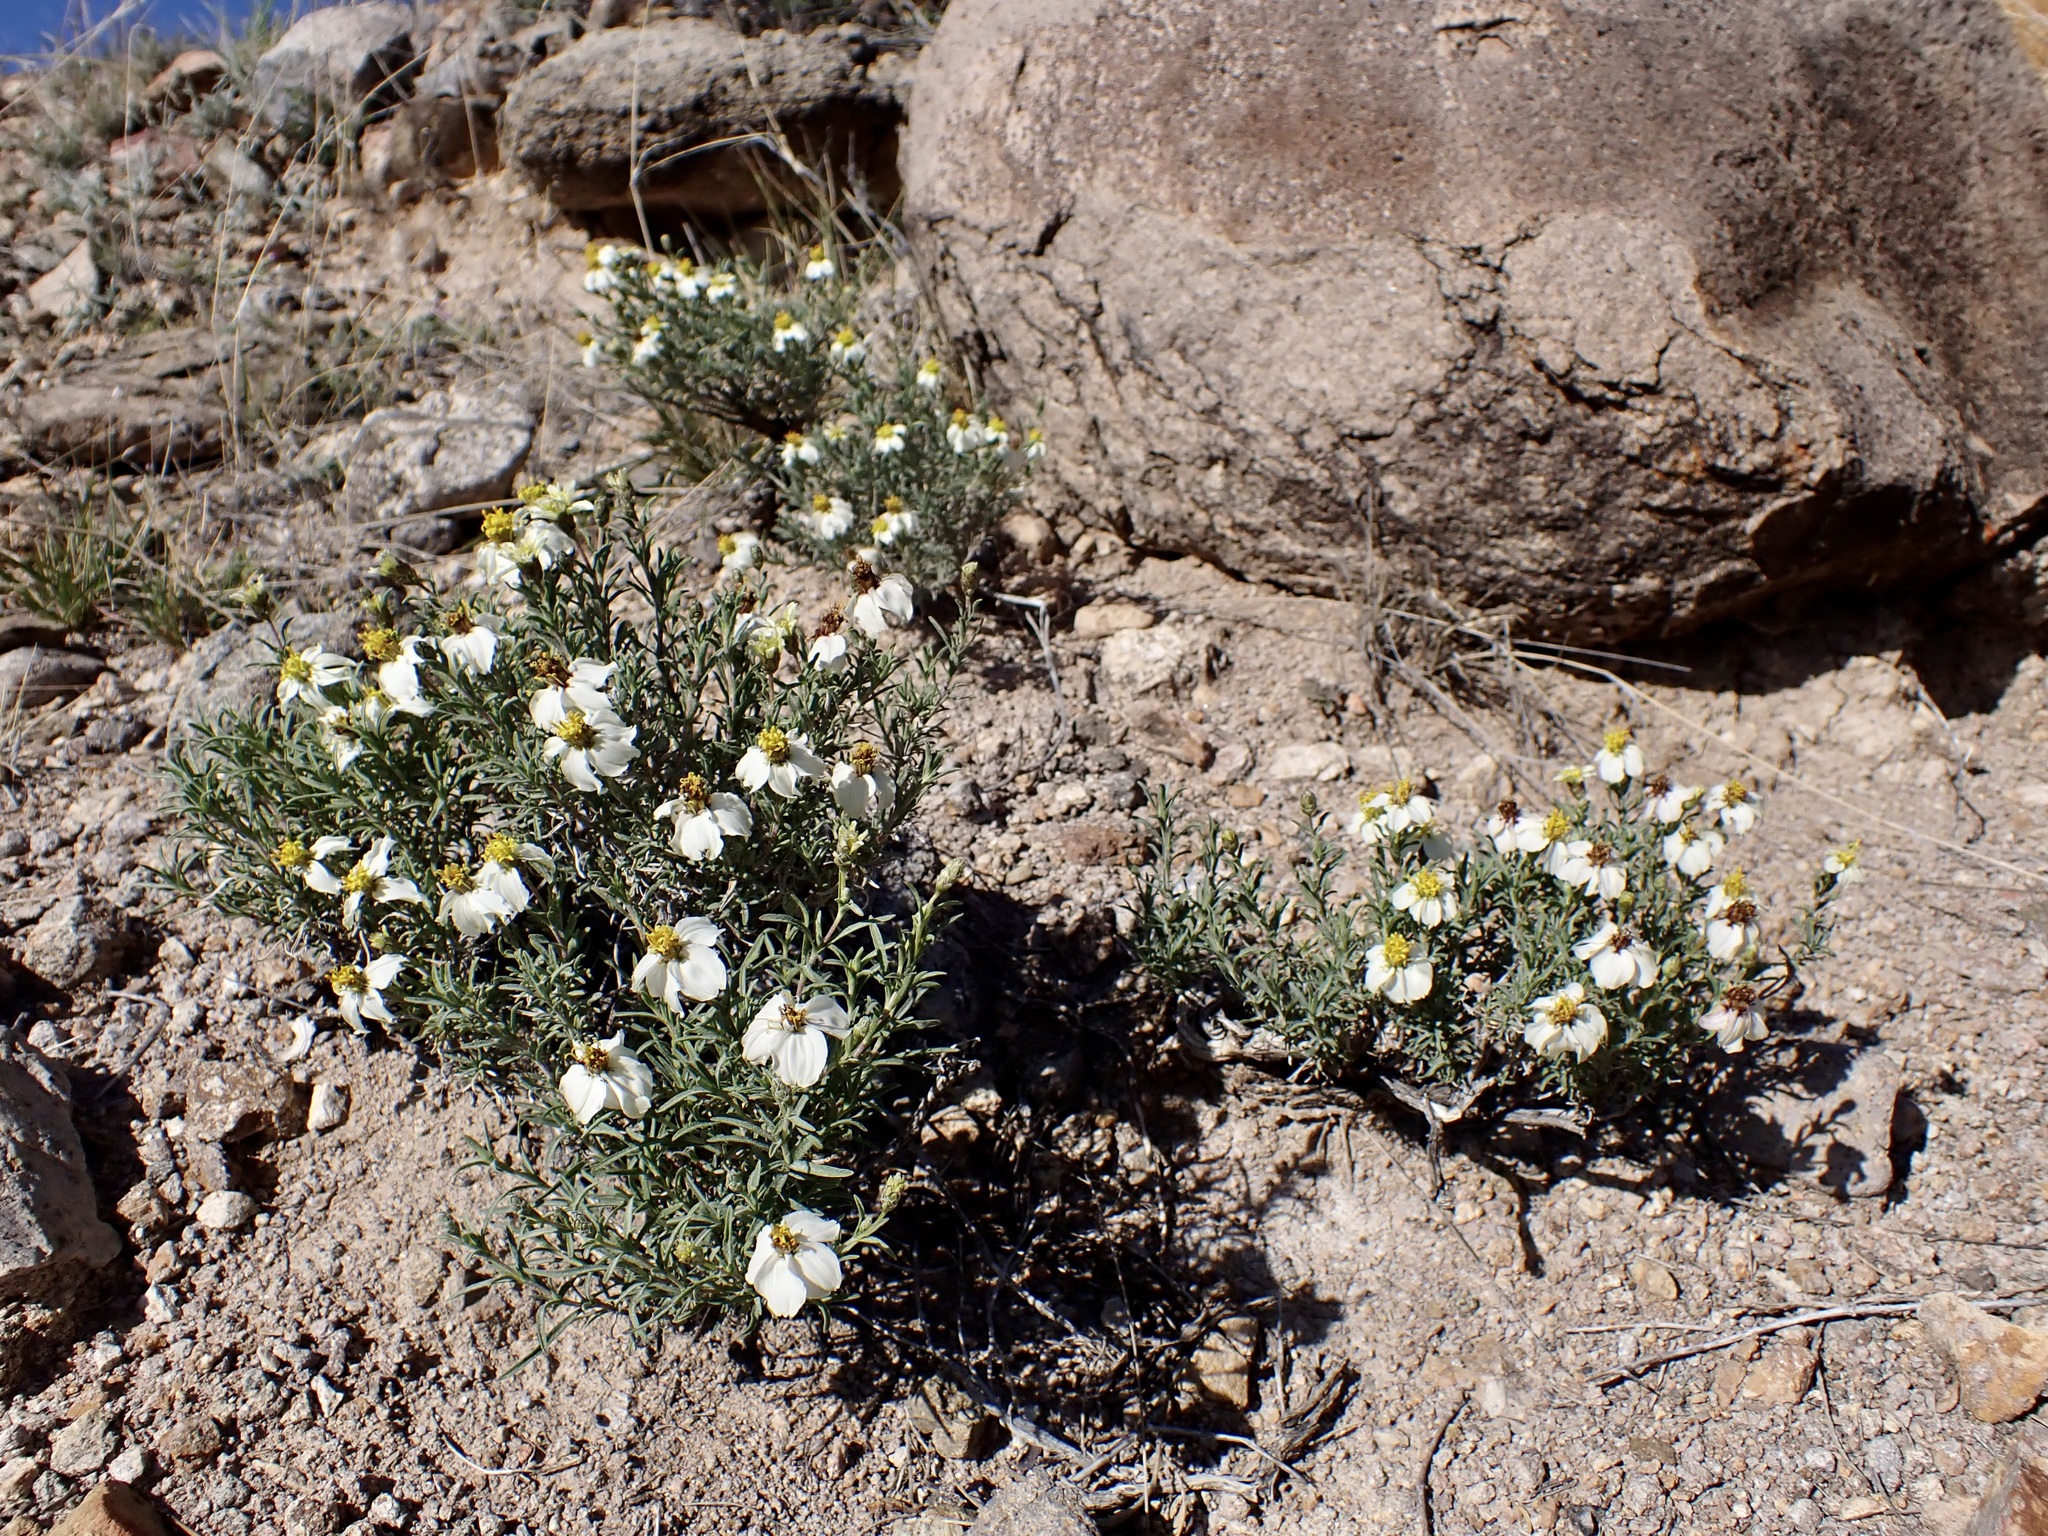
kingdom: Plantae
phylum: Tracheophyta
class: Magnoliopsida
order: Asterales
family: Asteraceae
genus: Zinnia
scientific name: Zinnia acerosa
